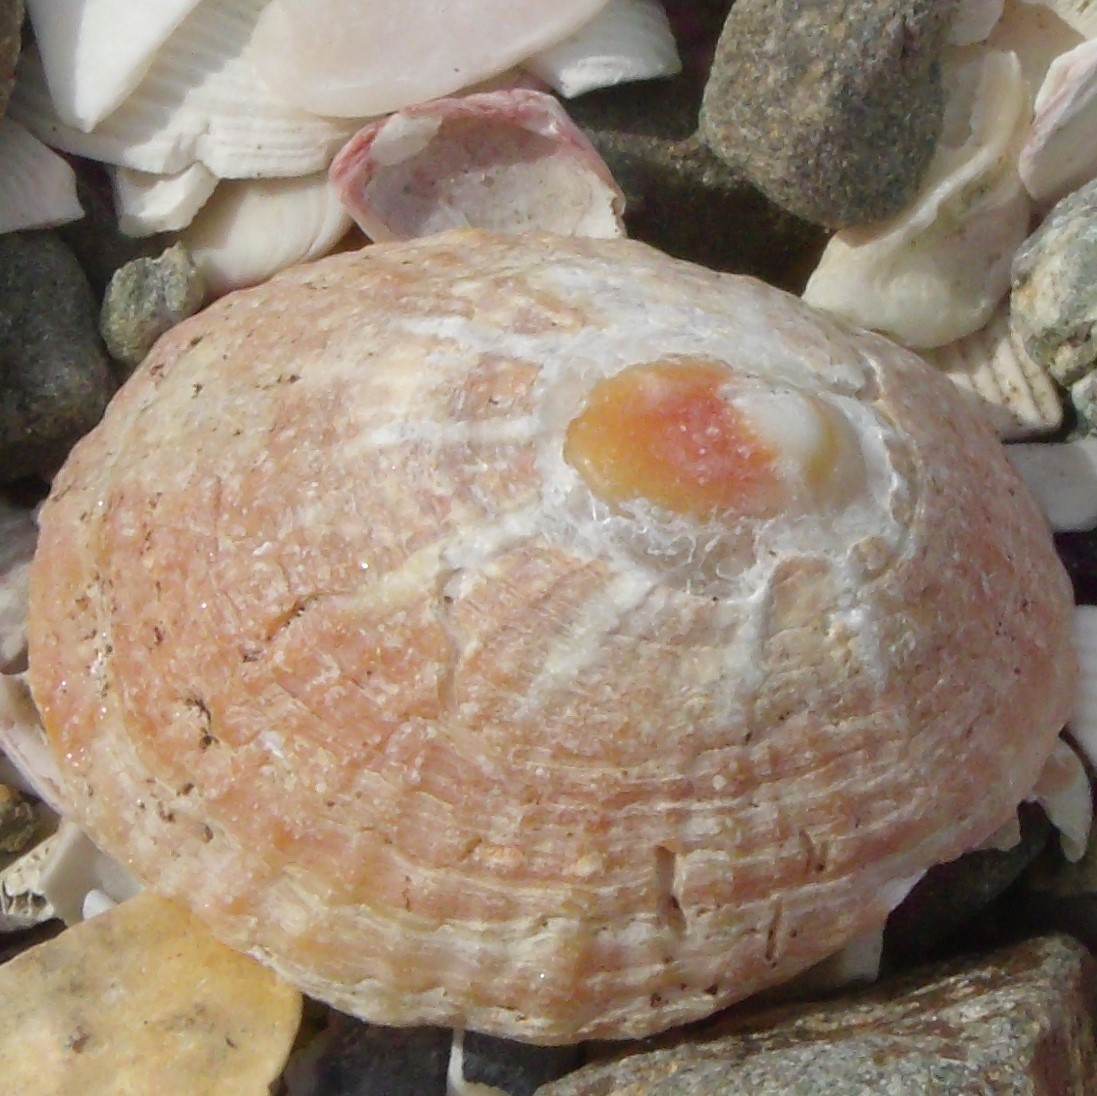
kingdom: Animalia
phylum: Mollusca
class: Gastropoda
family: Nacellidae
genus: Cellana
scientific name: Cellana stellifera
